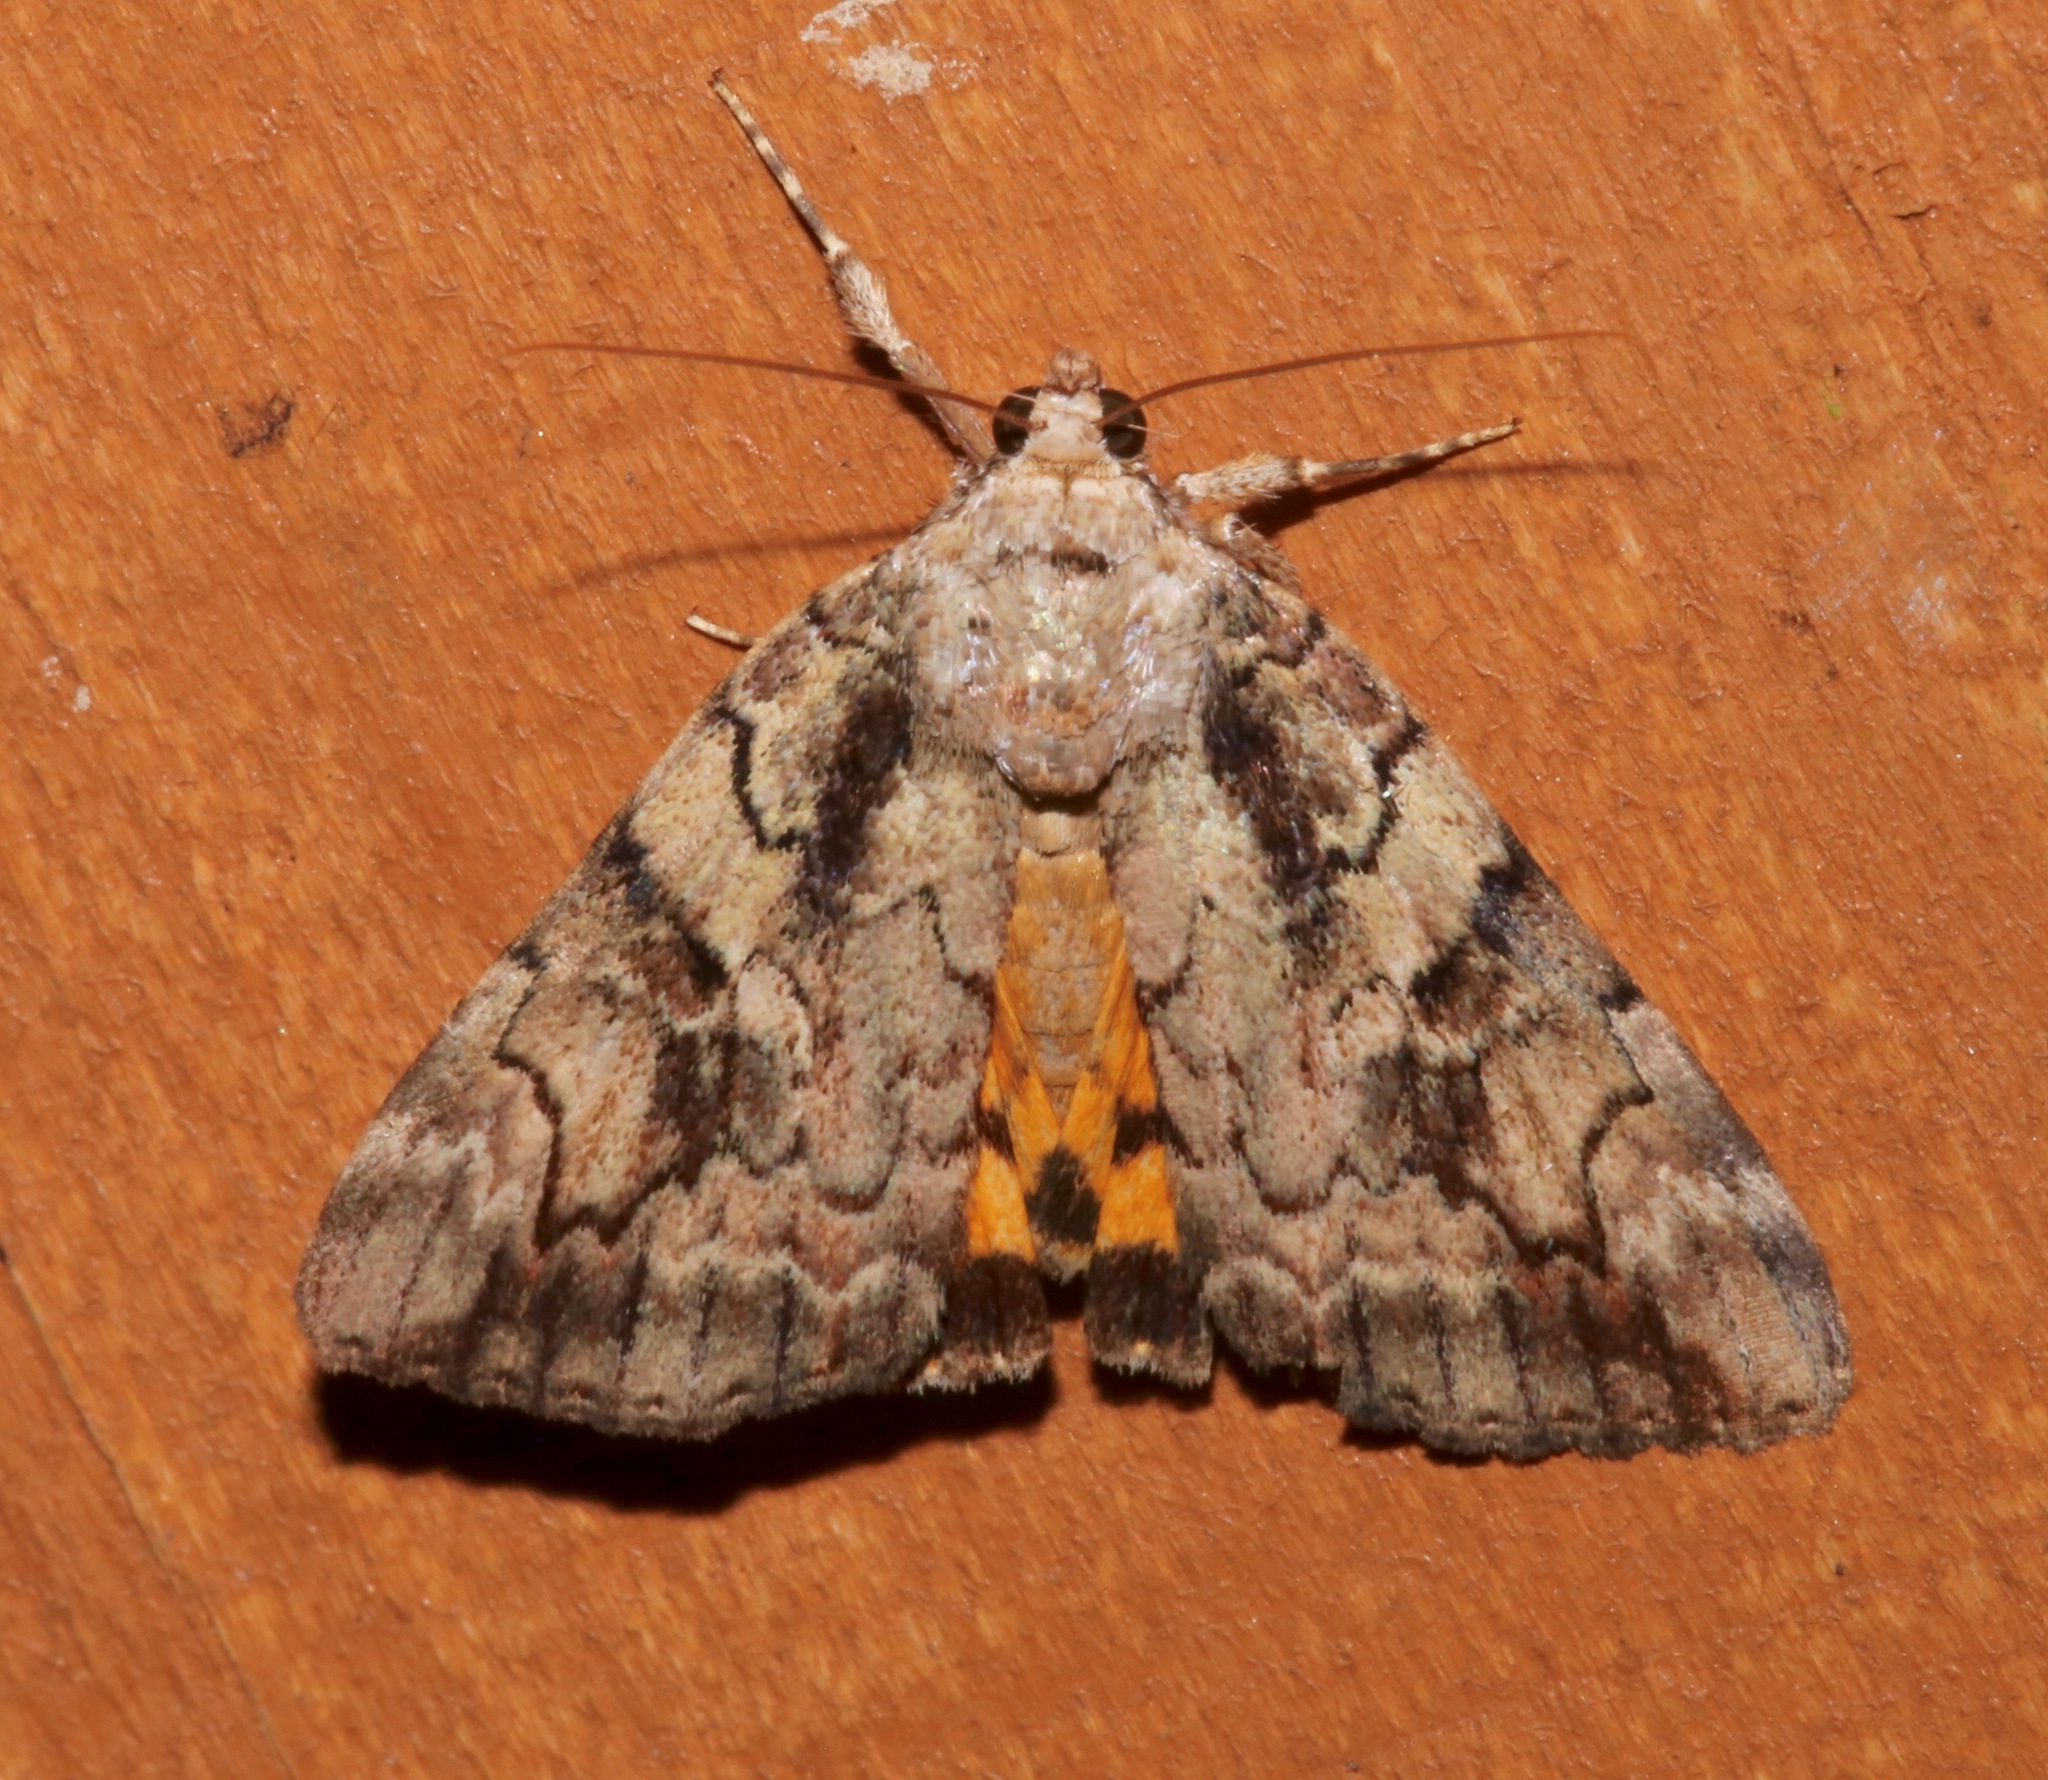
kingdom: Animalia
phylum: Arthropoda
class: Insecta
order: Lepidoptera
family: Erebidae
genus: Catocala
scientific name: Catocala micronympha
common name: Little nymph underwing
